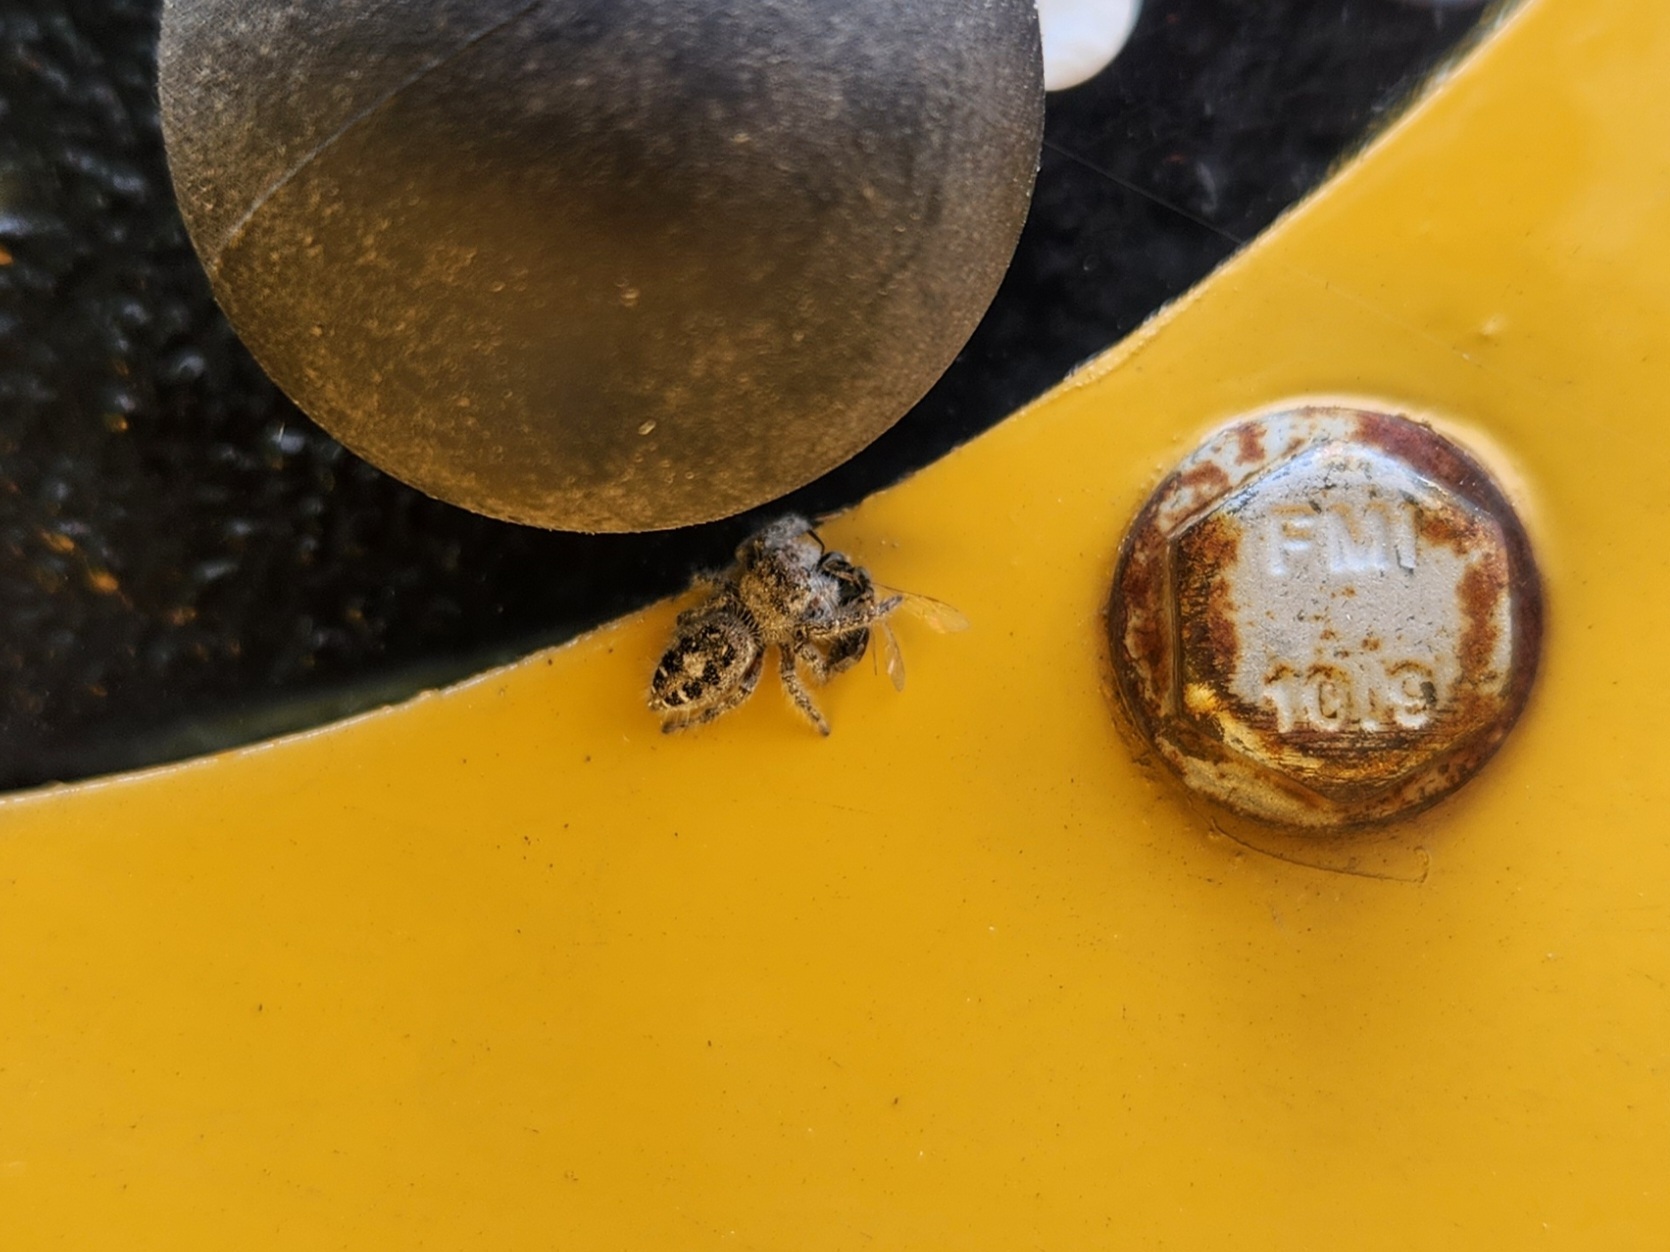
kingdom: Animalia
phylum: Arthropoda
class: Arachnida
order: Araneae
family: Salticidae
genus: Phidippus
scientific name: Phidippus putnami
